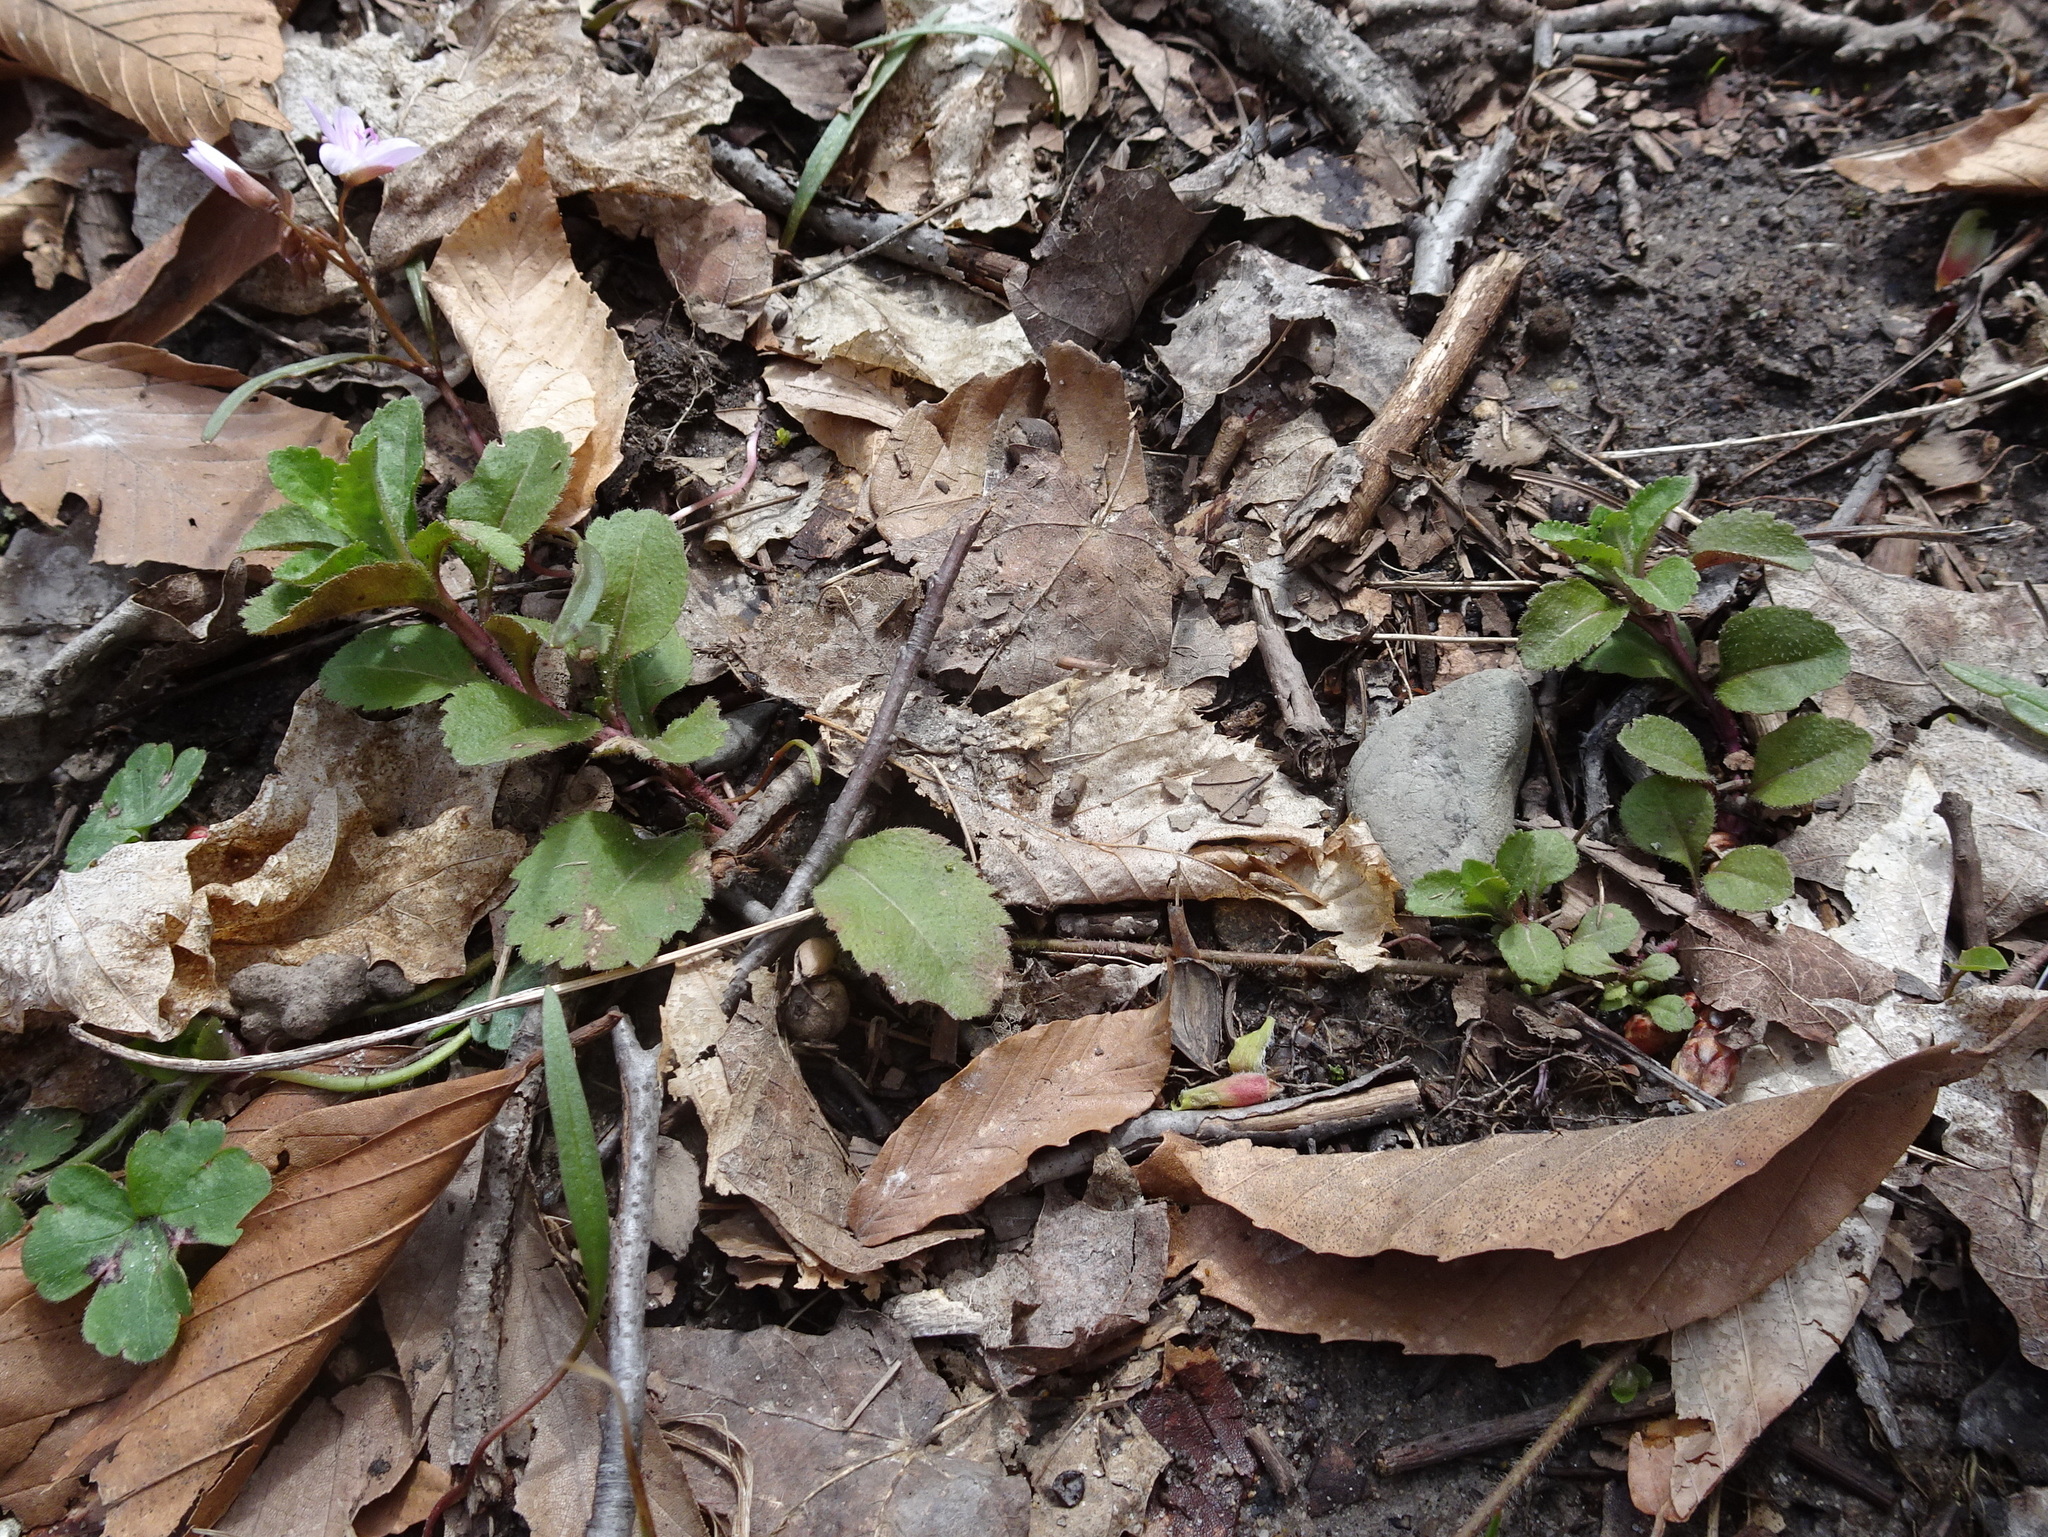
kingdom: Plantae
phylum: Tracheophyta
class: Magnoliopsida
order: Lamiales
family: Plantaginaceae
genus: Veronica
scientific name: Veronica officinalis
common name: Common speedwell
